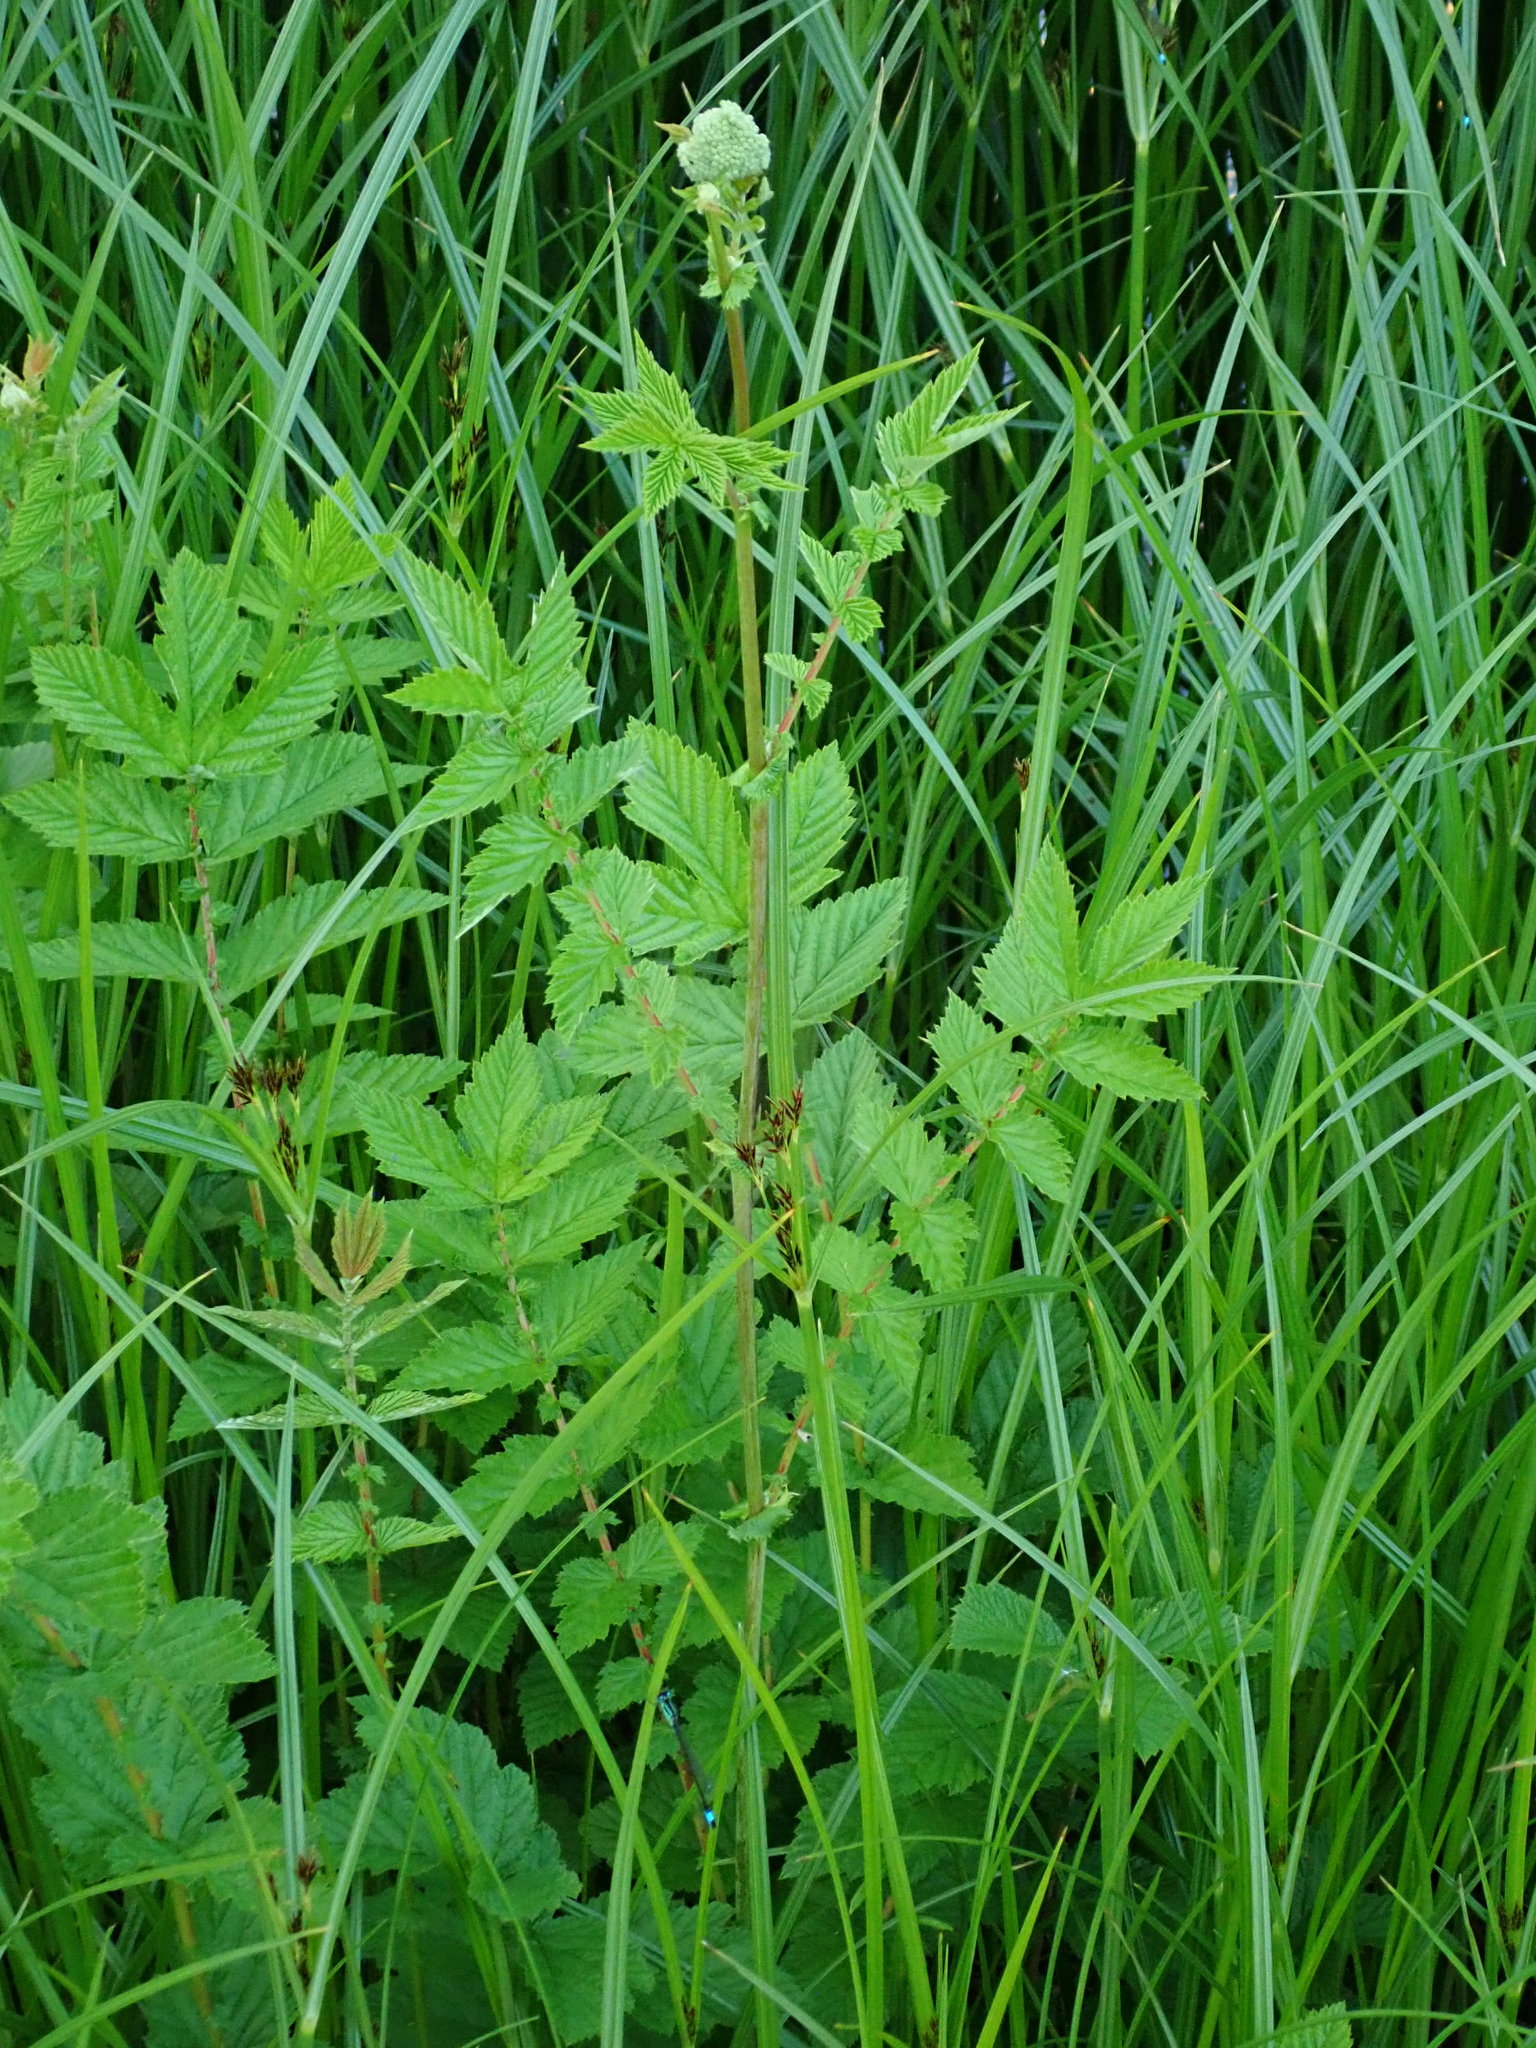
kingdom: Plantae
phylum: Tracheophyta
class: Magnoliopsida
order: Rosales
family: Rosaceae
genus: Filipendula
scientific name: Filipendula ulmaria
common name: Meadowsweet
